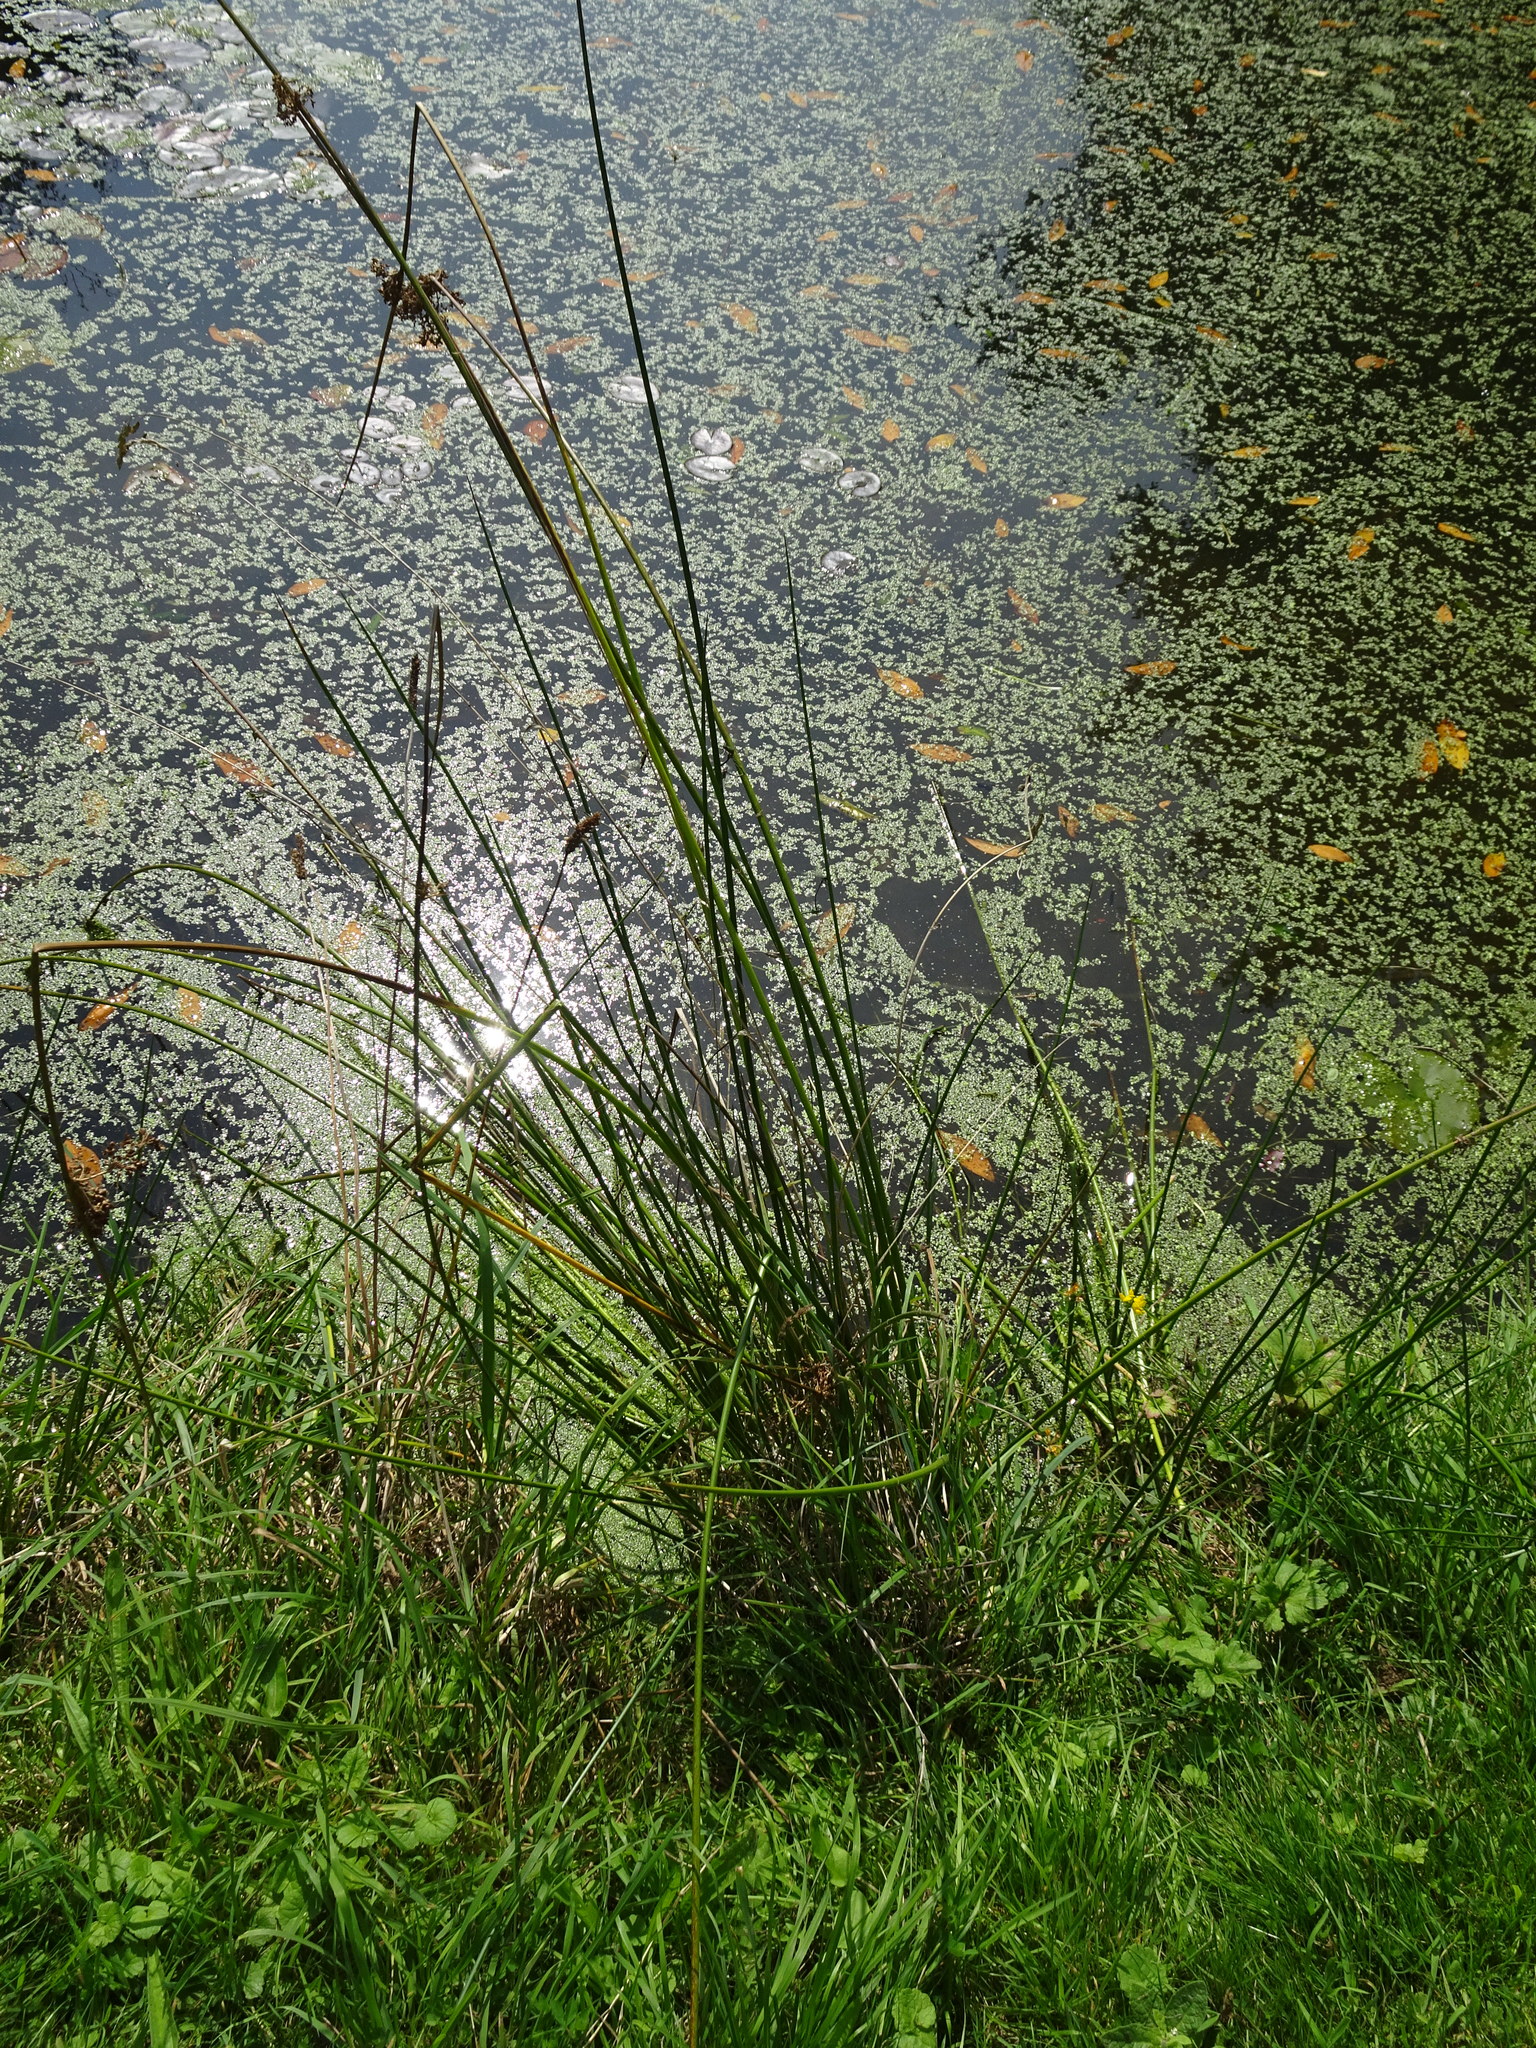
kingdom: Plantae
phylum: Tracheophyta
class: Liliopsida
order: Poales
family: Juncaceae
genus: Juncus
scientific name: Juncus effusus
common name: Soft rush
